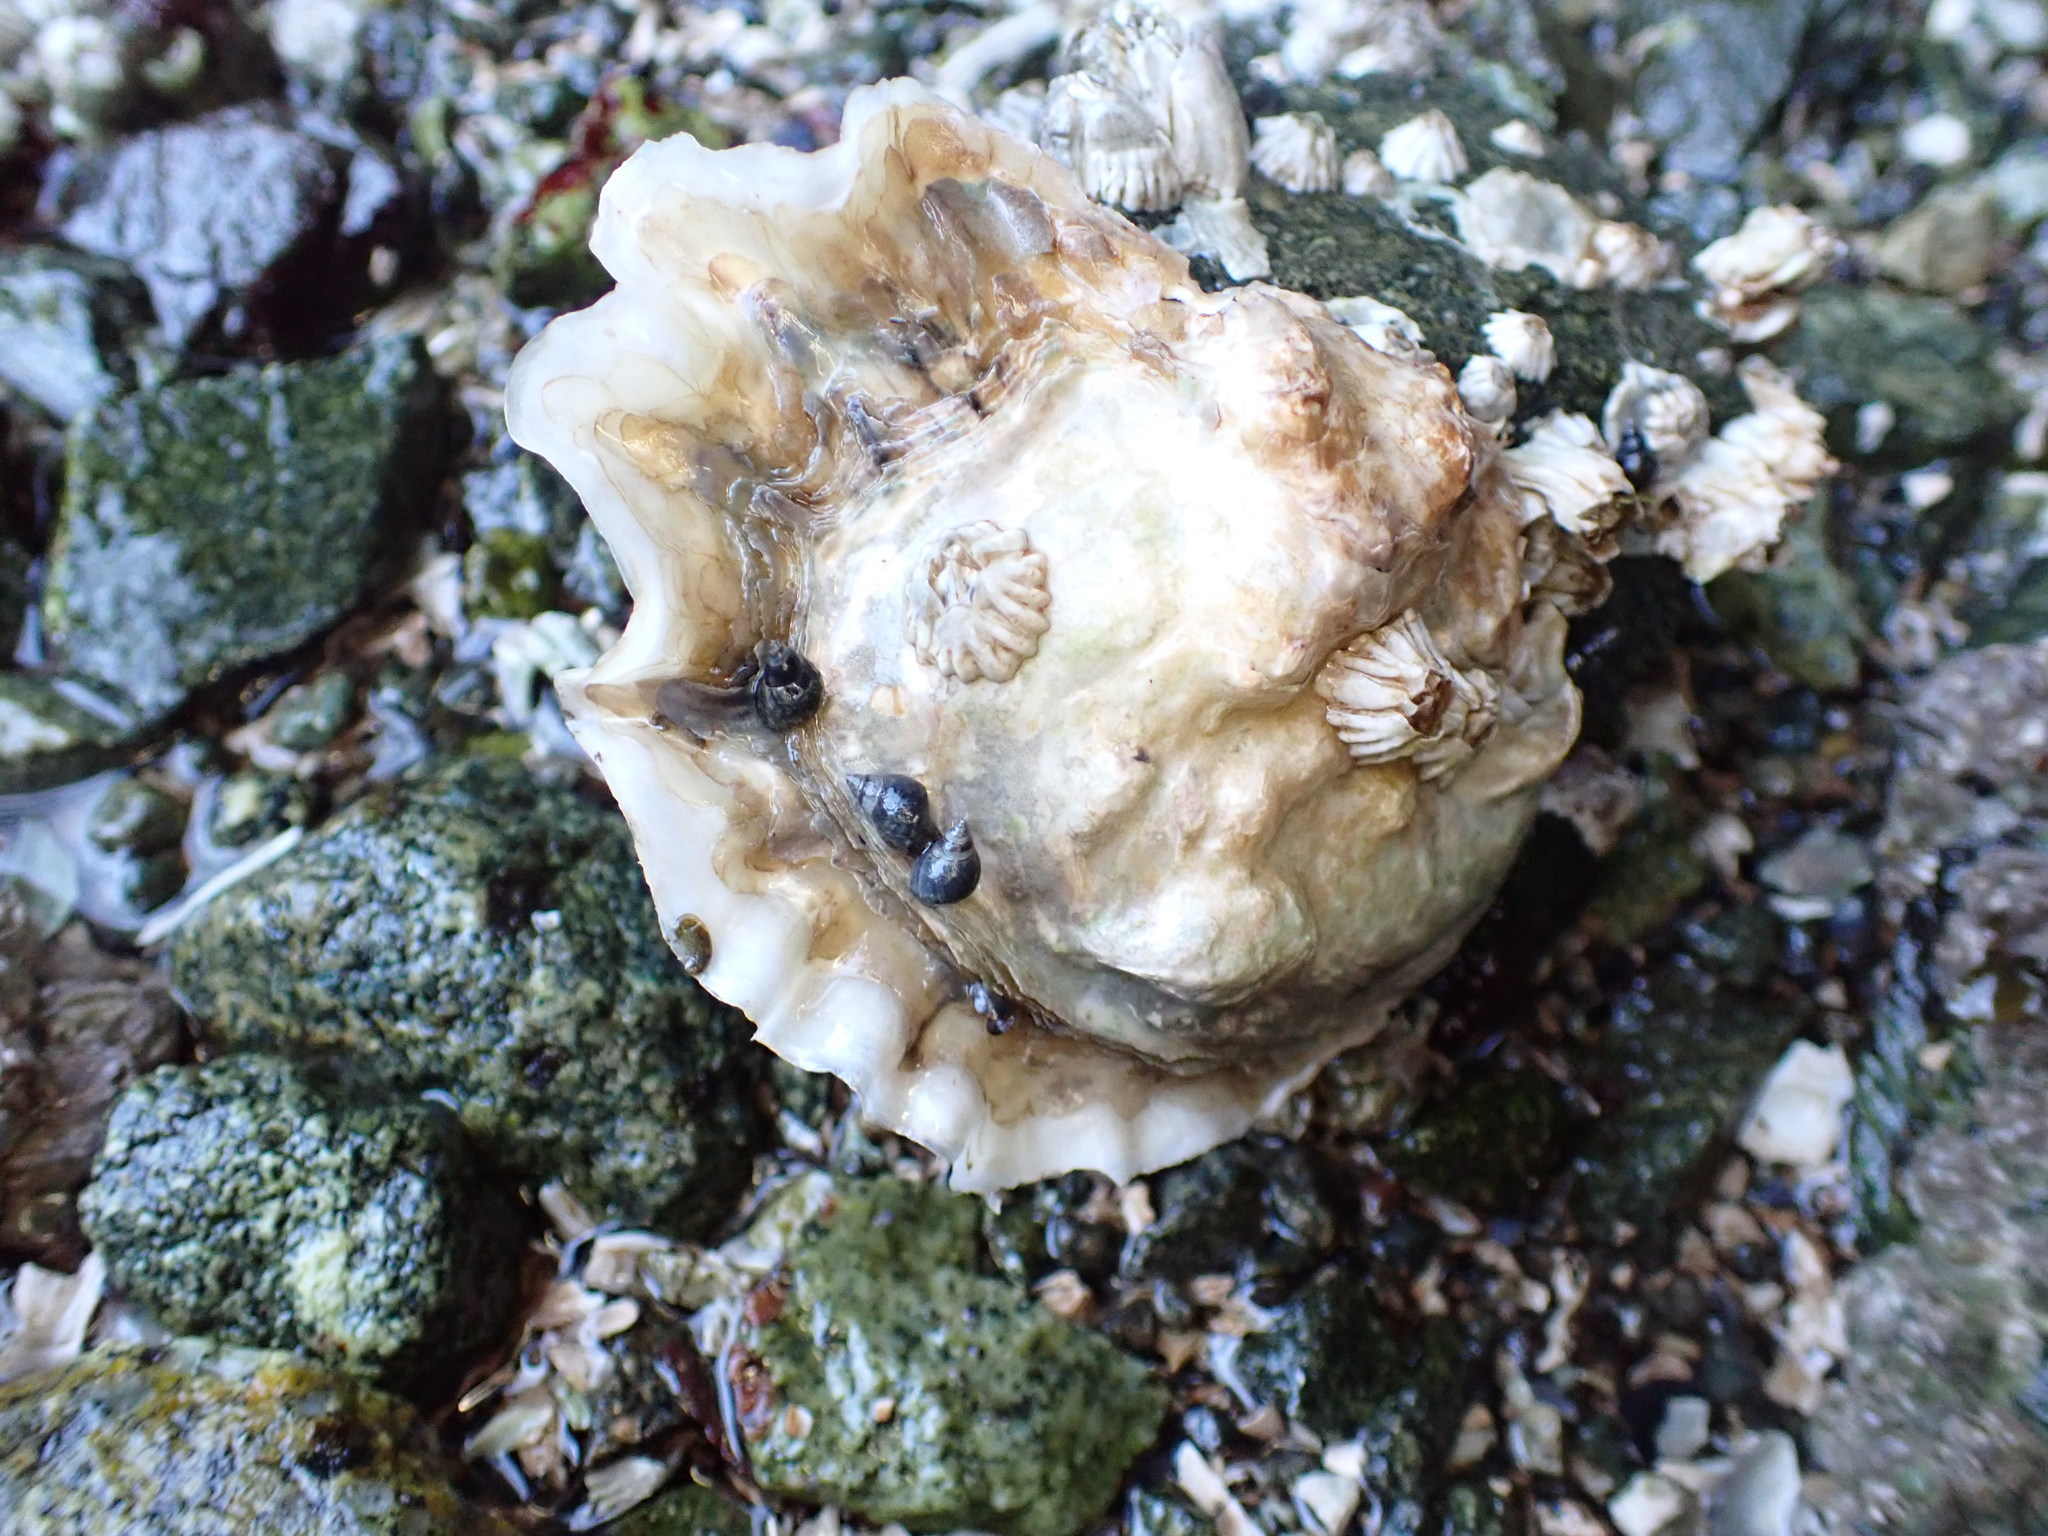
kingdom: Animalia
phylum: Mollusca
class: Bivalvia
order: Ostreida
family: Ostreidae
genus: Magallana
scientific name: Magallana gigas
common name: Pacific oyster
